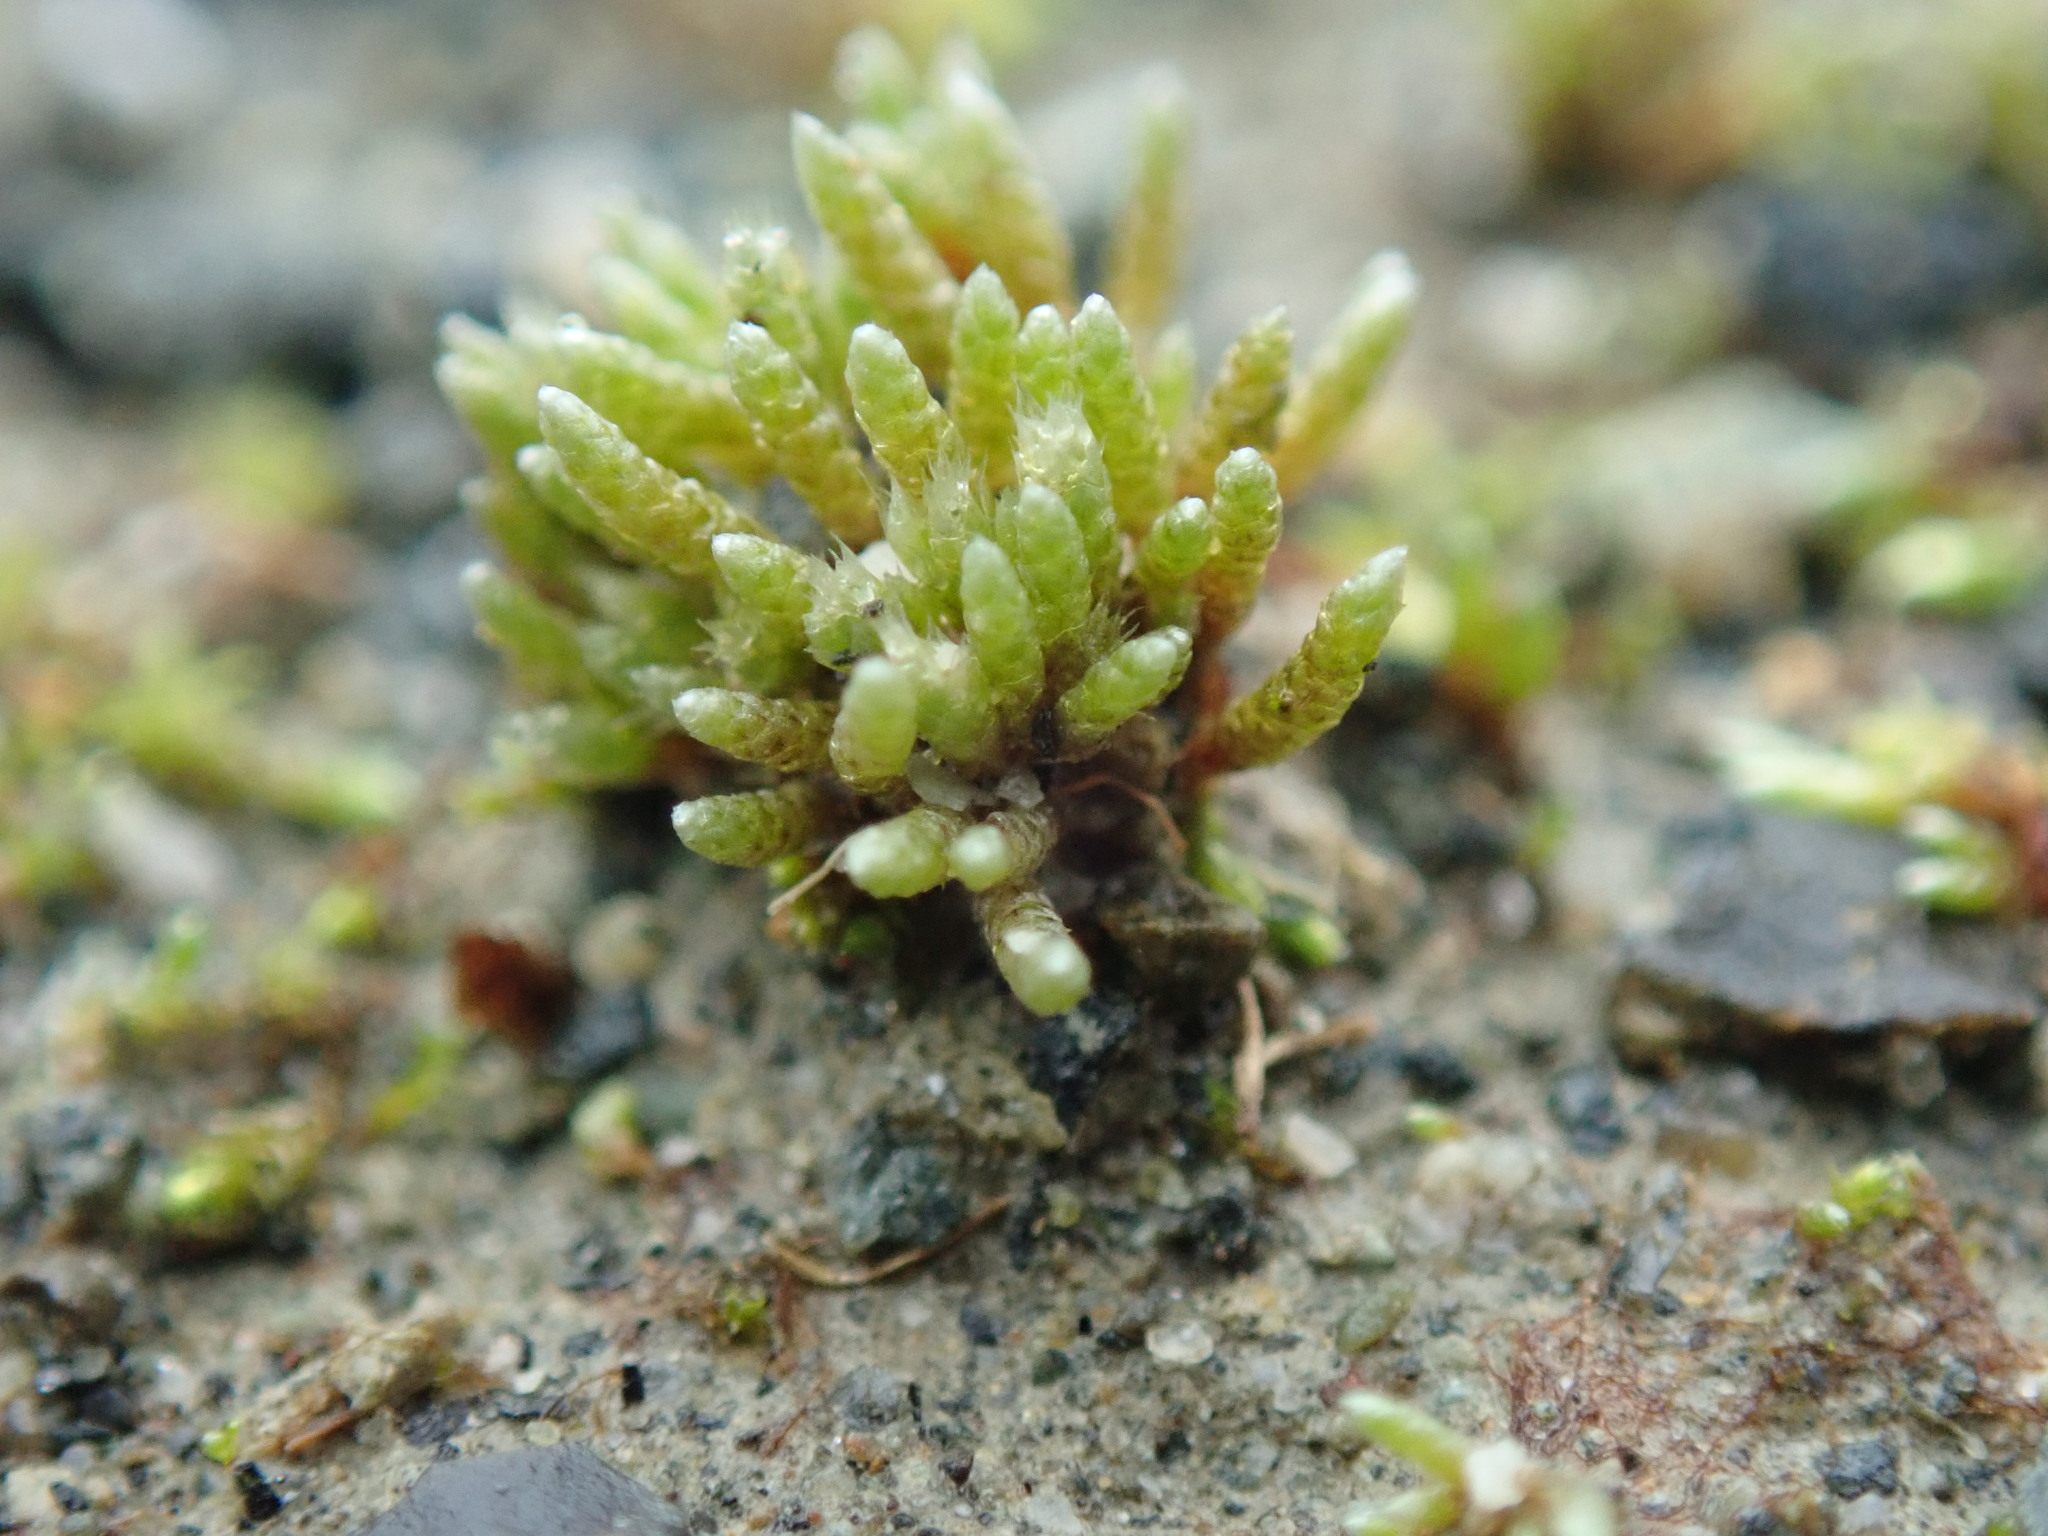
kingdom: Plantae
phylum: Bryophyta
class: Bryopsida
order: Bryales
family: Bryaceae
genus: Bryum
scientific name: Bryum argenteum
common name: Silver-moss
